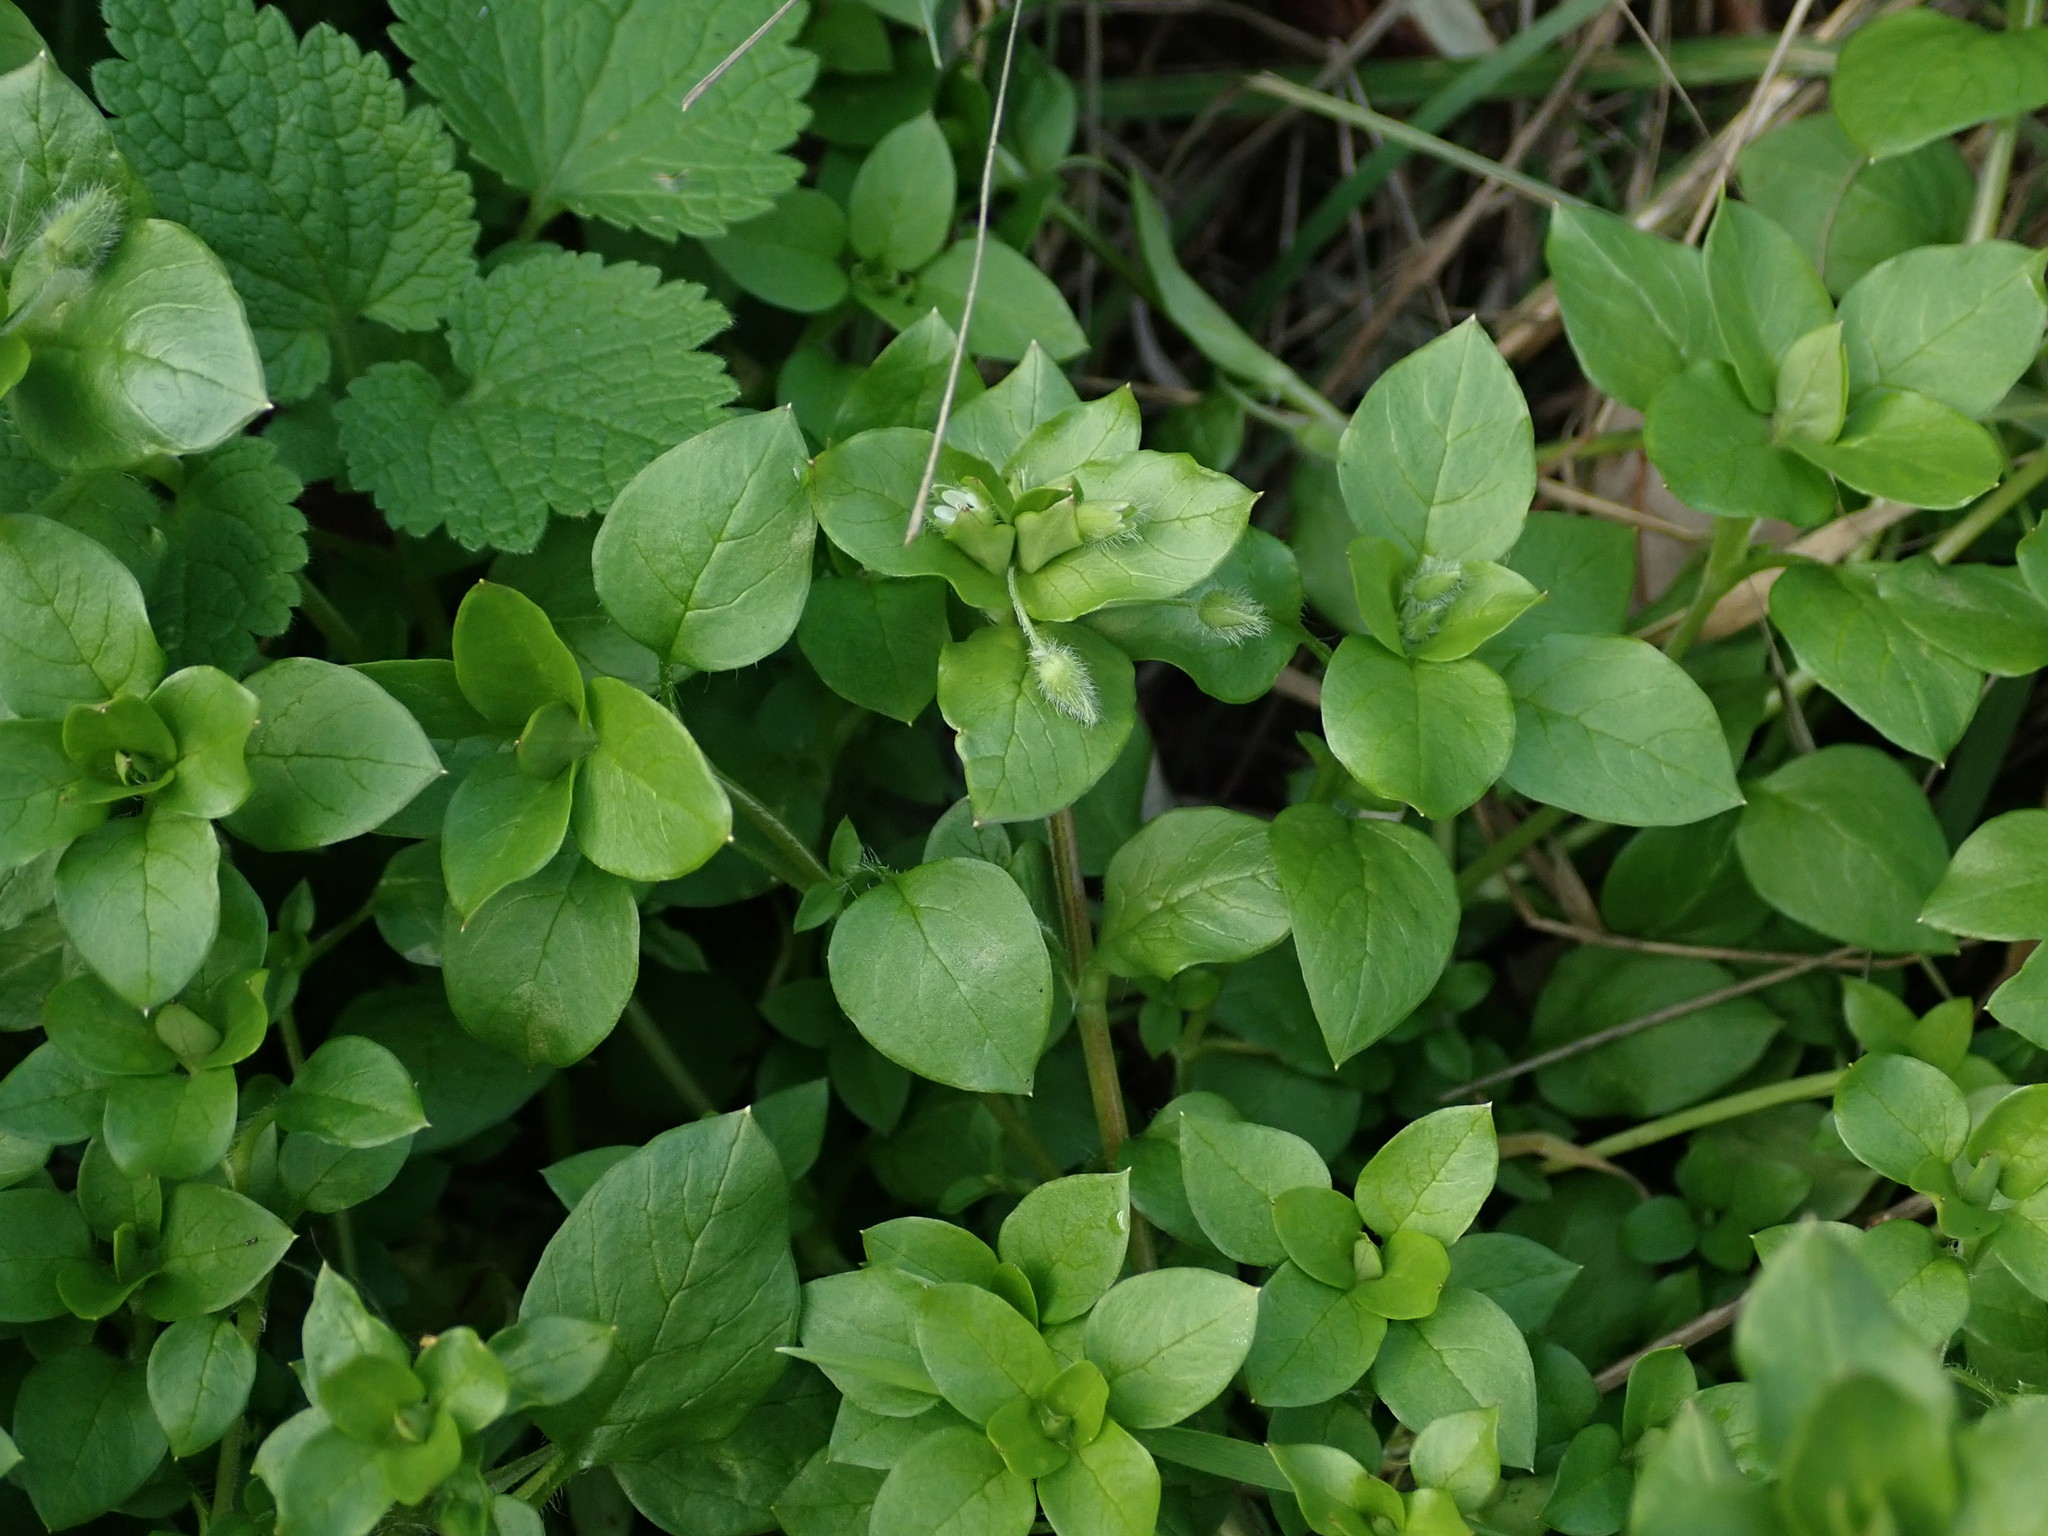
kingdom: Plantae
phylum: Tracheophyta
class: Magnoliopsida
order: Caryophyllales
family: Caryophyllaceae
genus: Stellaria
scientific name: Stellaria media
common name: Common chickweed
